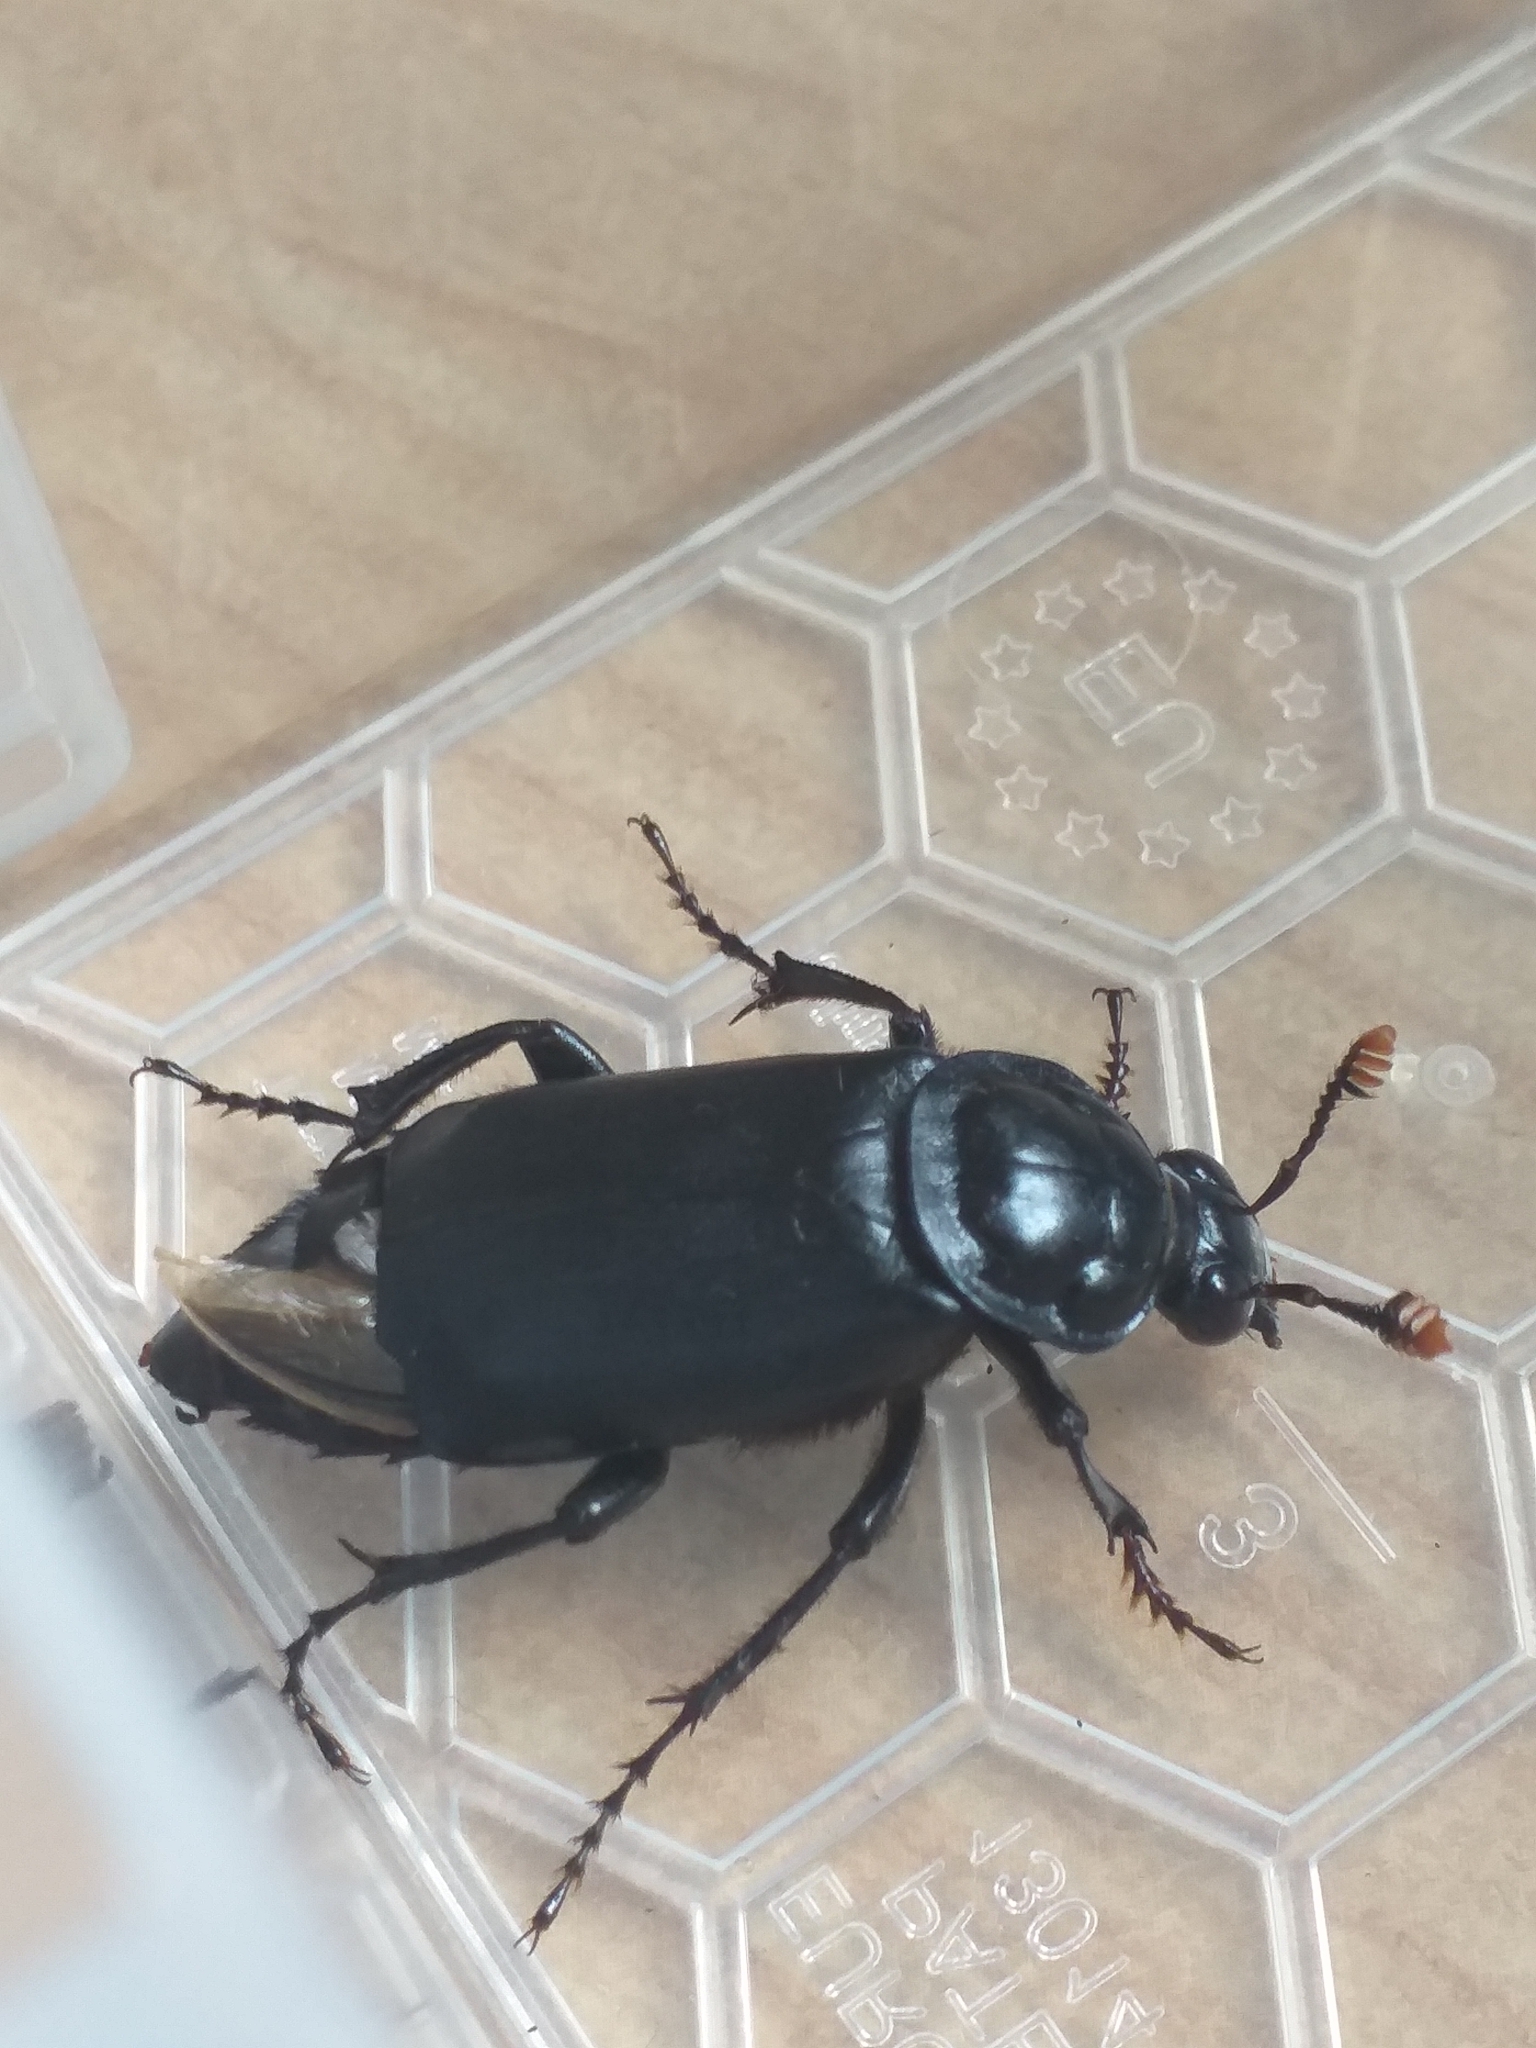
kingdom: Animalia
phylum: Arthropoda
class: Insecta
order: Coleoptera
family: Staphylinidae
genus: Nicrophorus
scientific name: Nicrophorus humator
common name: Black sexton beetle
